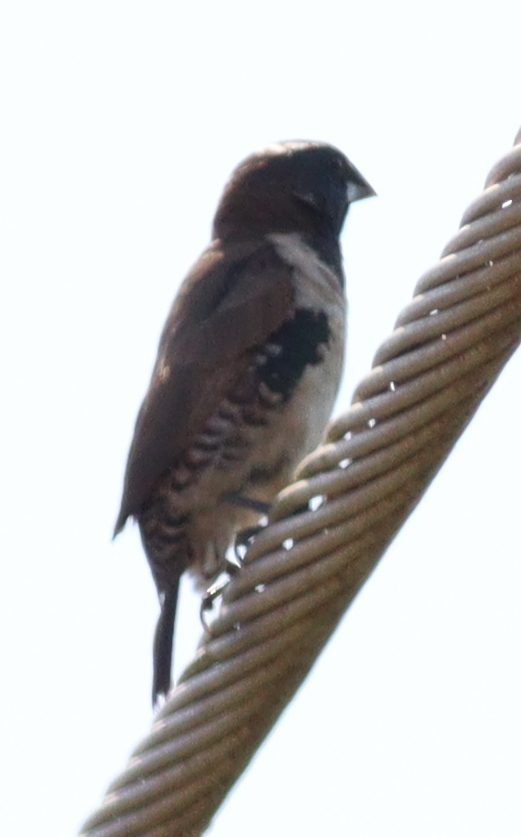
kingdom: Animalia
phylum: Chordata
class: Aves
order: Passeriformes
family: Estrildidae
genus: Lonchura
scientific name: Lonchura cucullata
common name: Bronze mannikin
